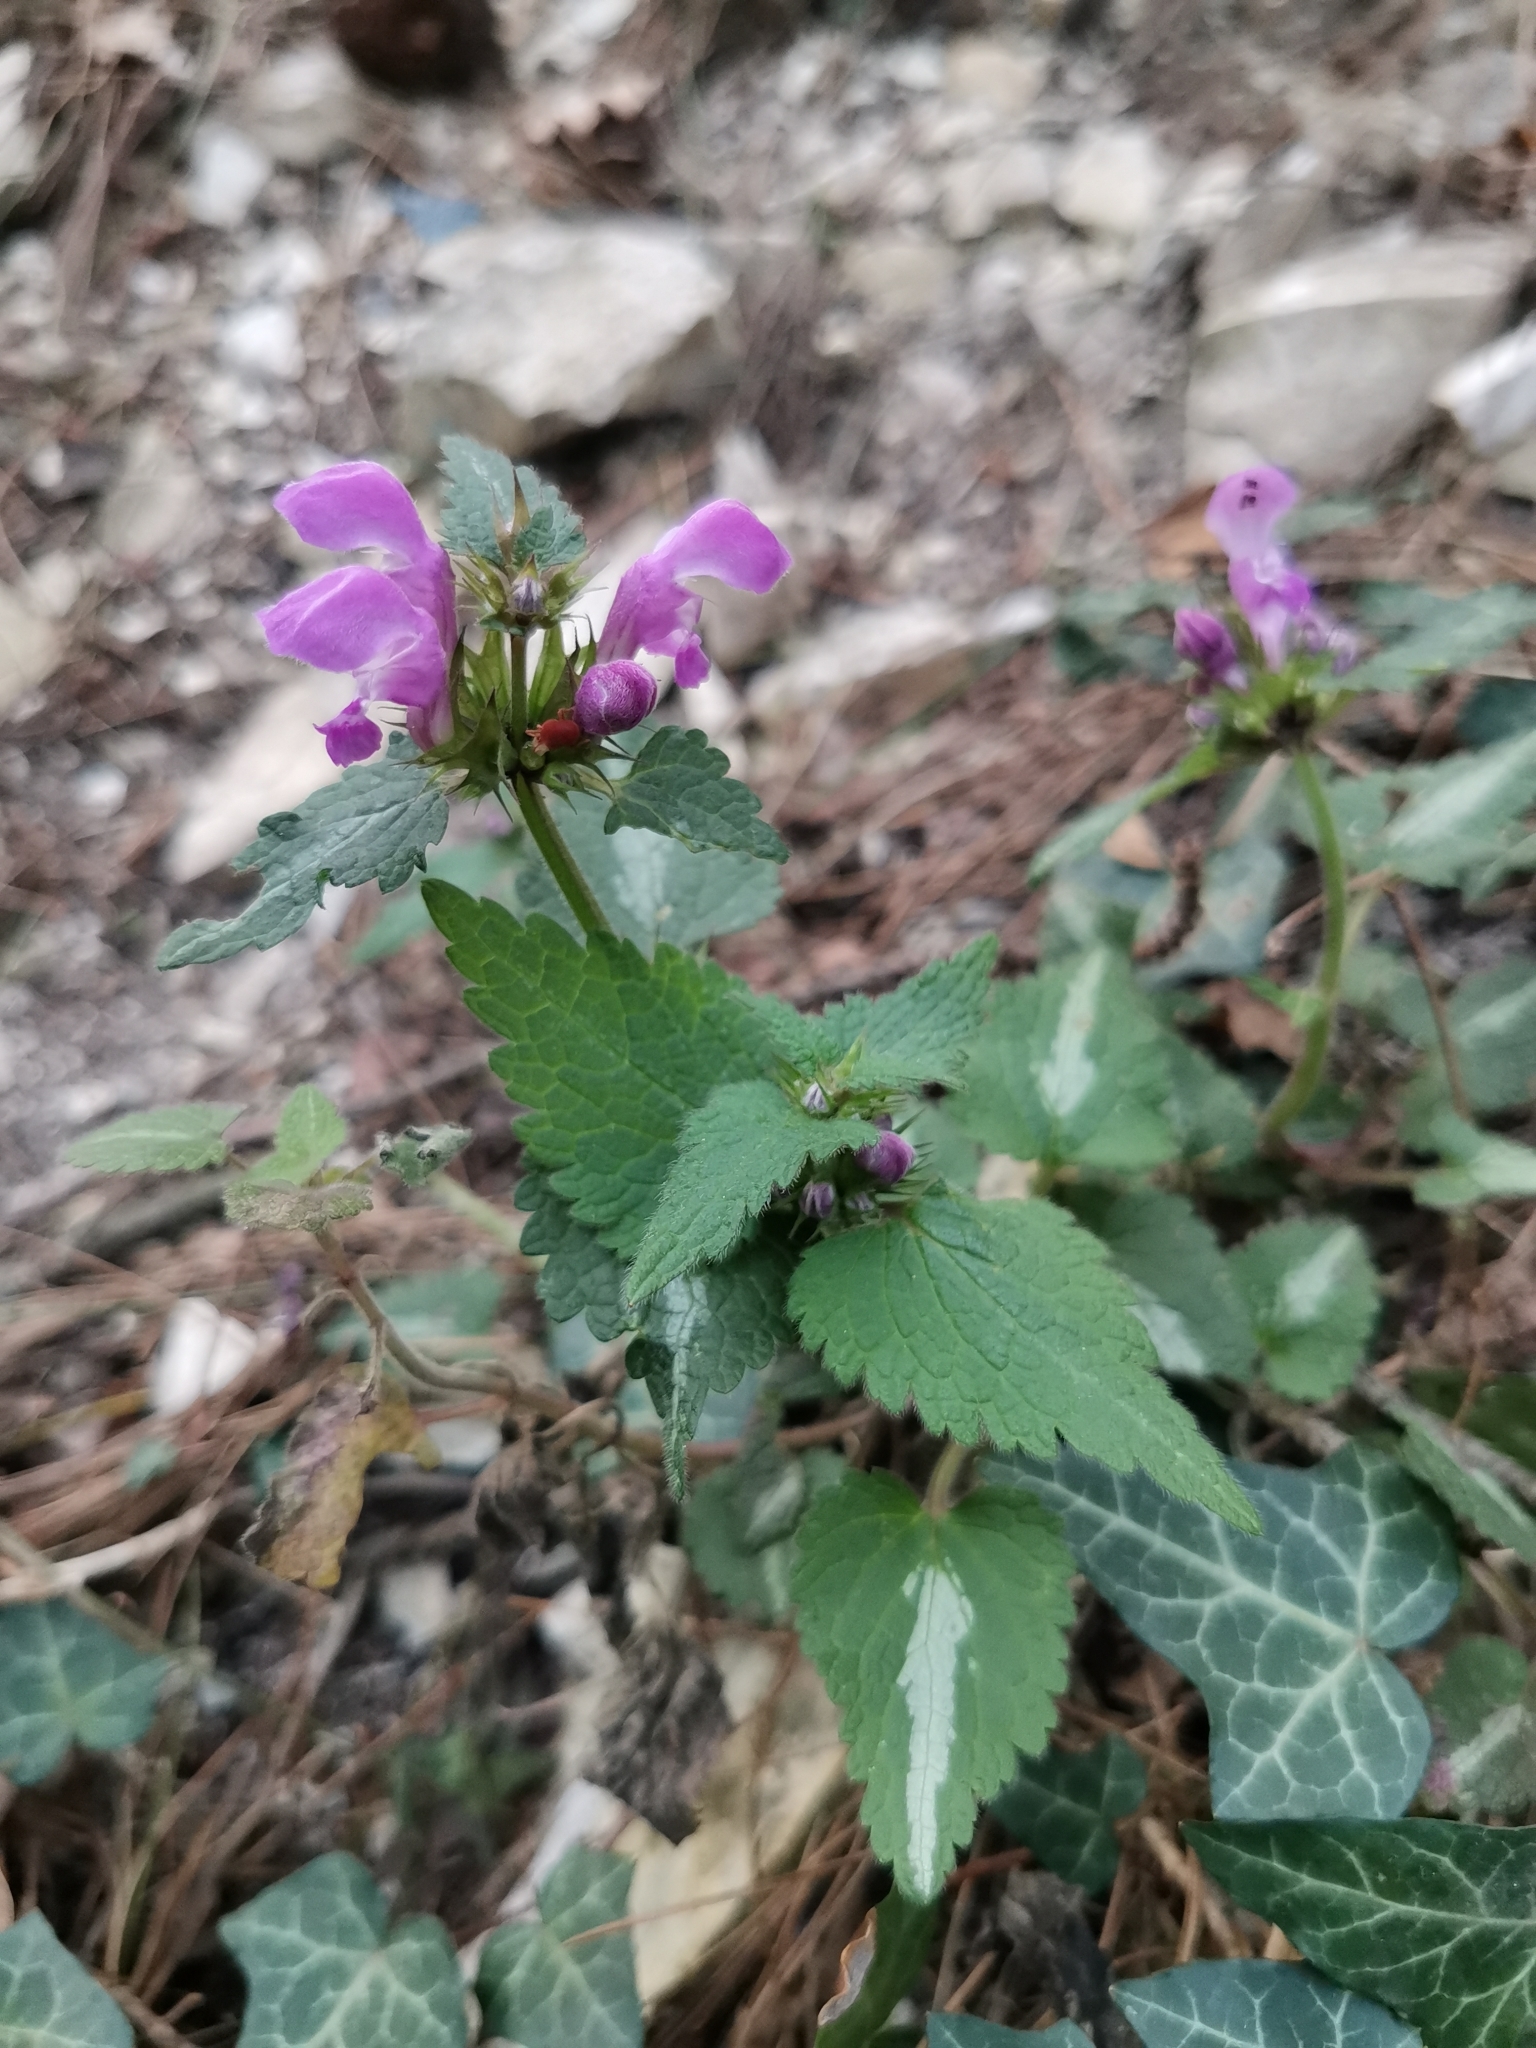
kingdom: Plantae
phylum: Tracheophyta
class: Magnoliopsida
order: Lamiales
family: Lamiaceae
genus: Lamium
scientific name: Lamium maculatum
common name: Spotted dead-nettle
